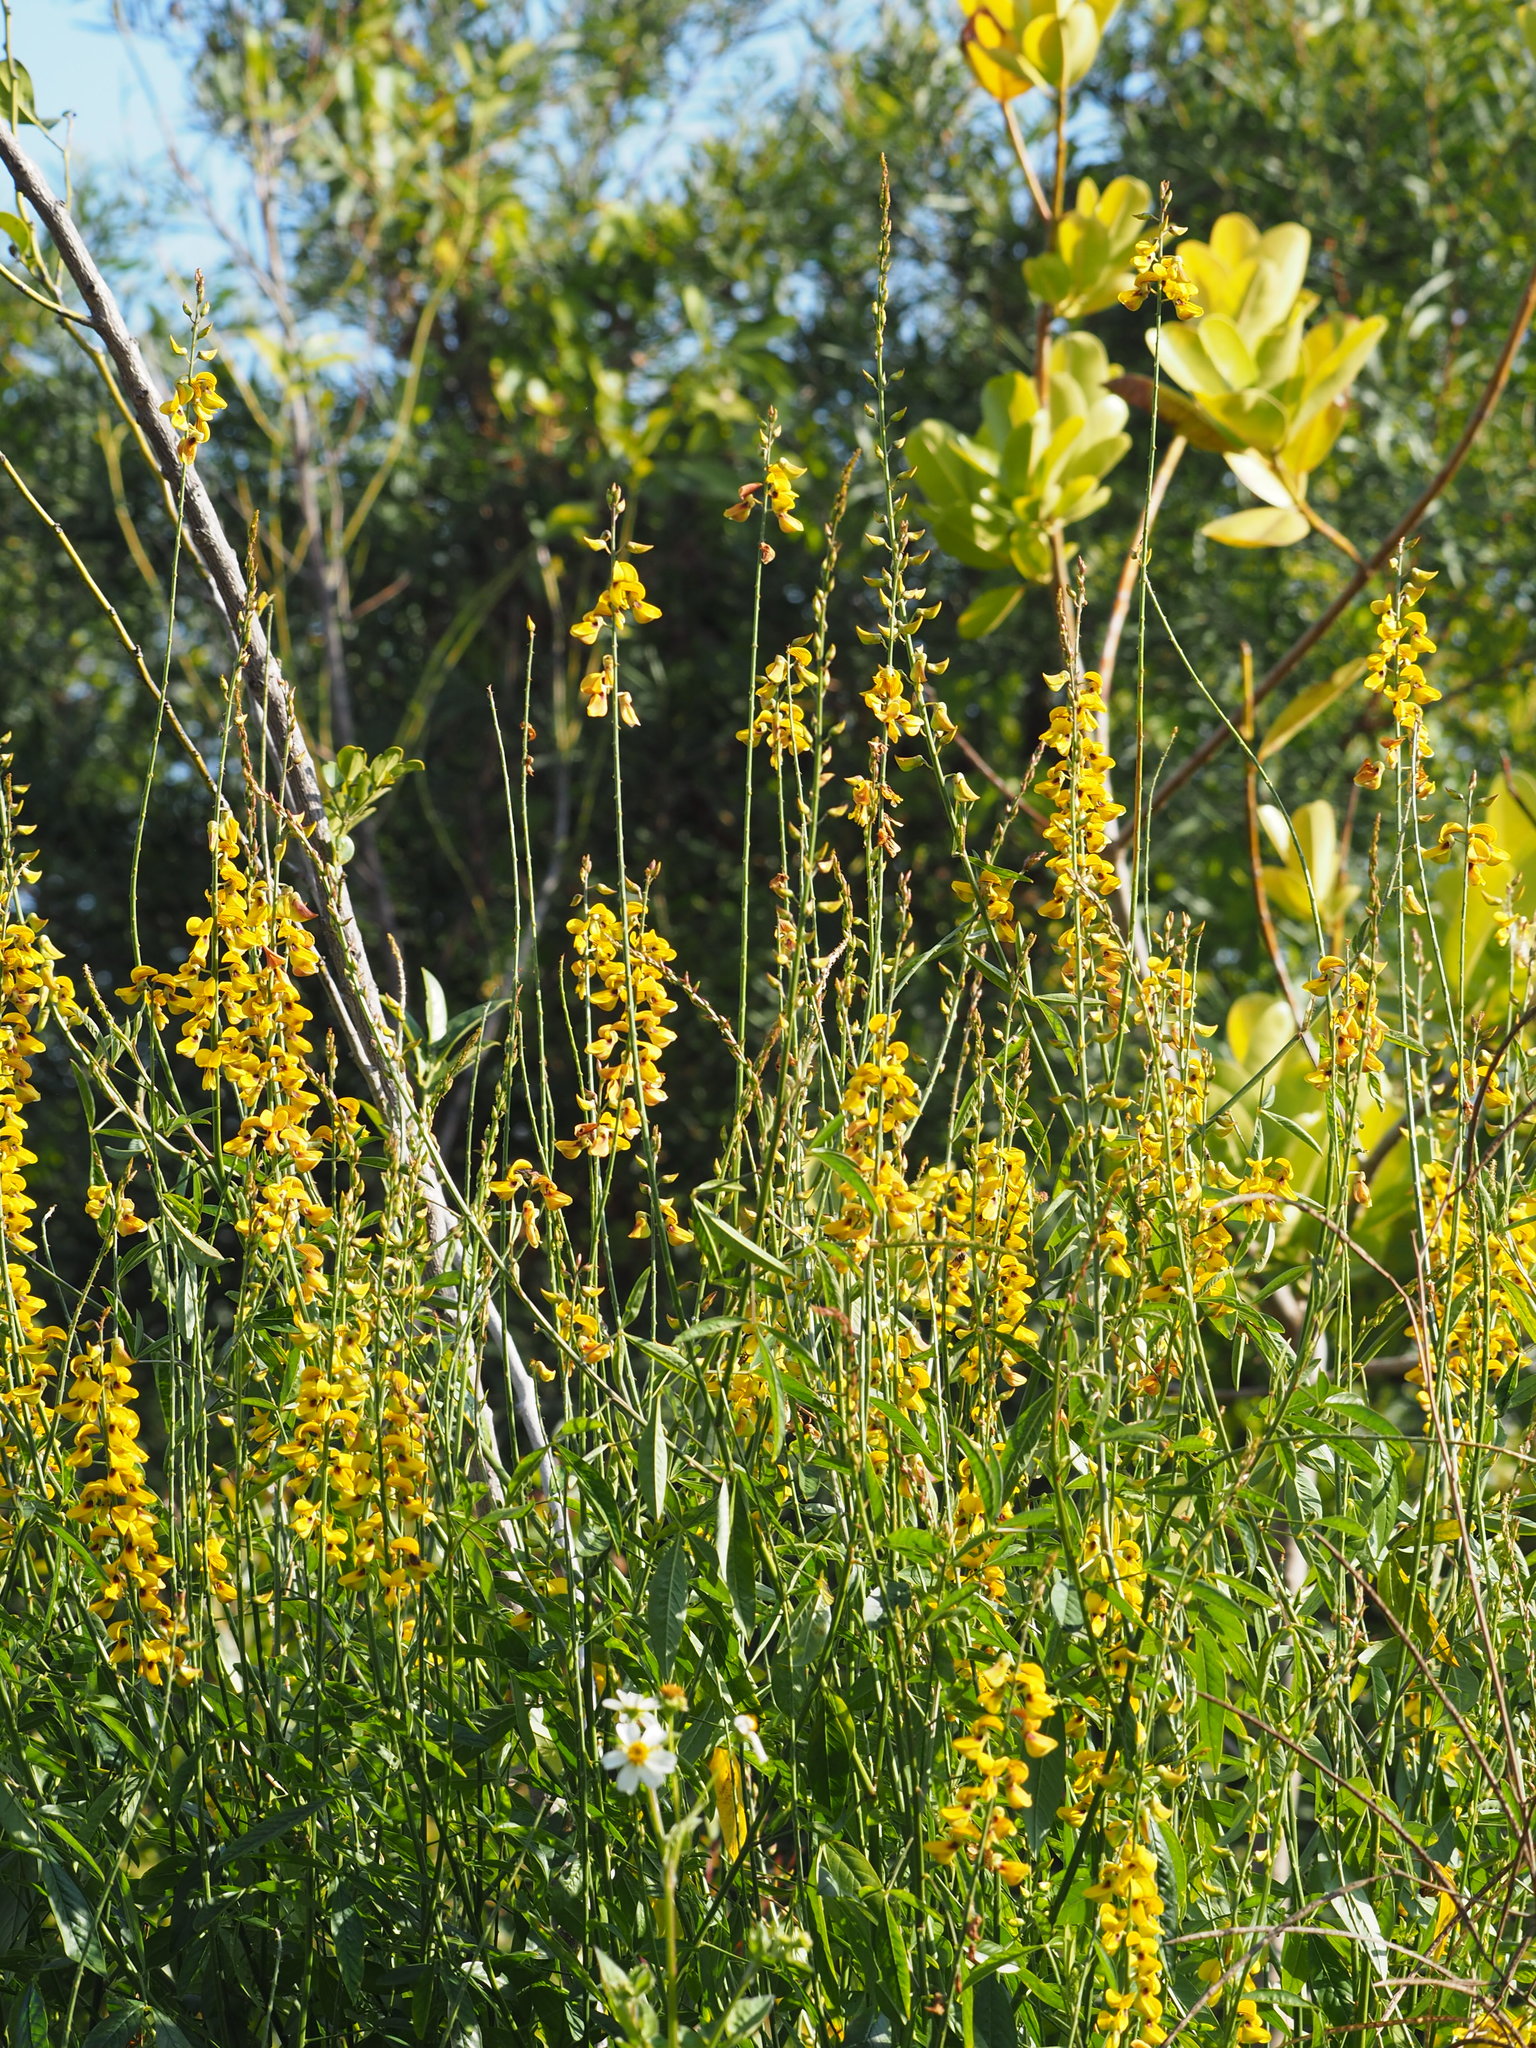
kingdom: Plantae
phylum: Tracheophyta
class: Magnoliopsida
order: Fabales
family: Fabaceae
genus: Crotalaria
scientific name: Crotalaria trichotoma
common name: West indian rattlebox
